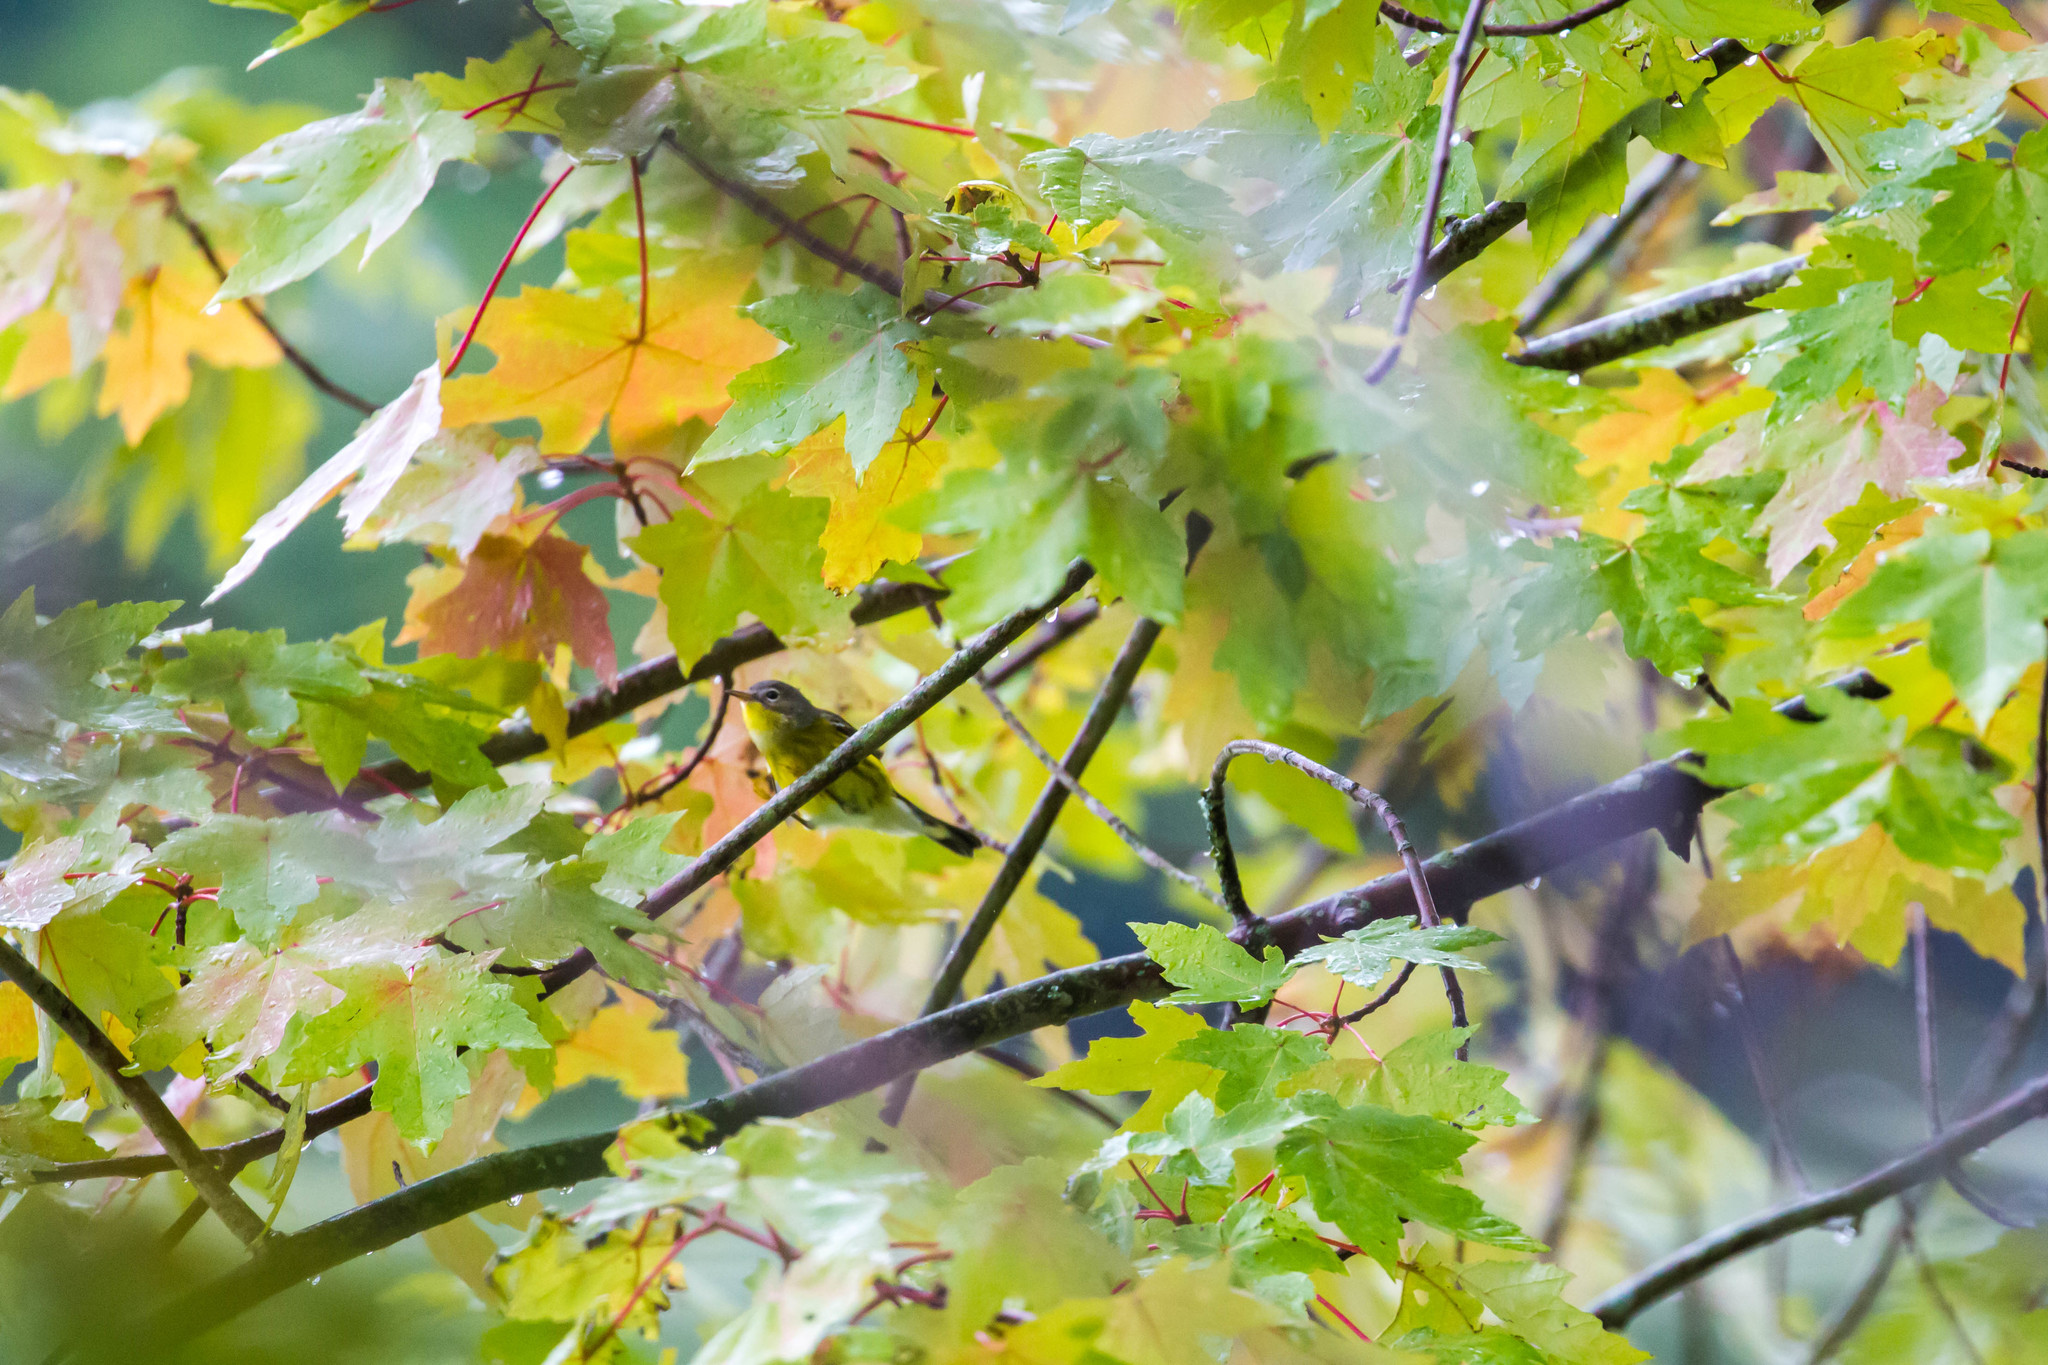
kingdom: Animalia
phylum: Chordata
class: Aves
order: Passeriformes
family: Parulidae
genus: Setophaga
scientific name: Setophaga magnolia
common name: Magnolia warbler
